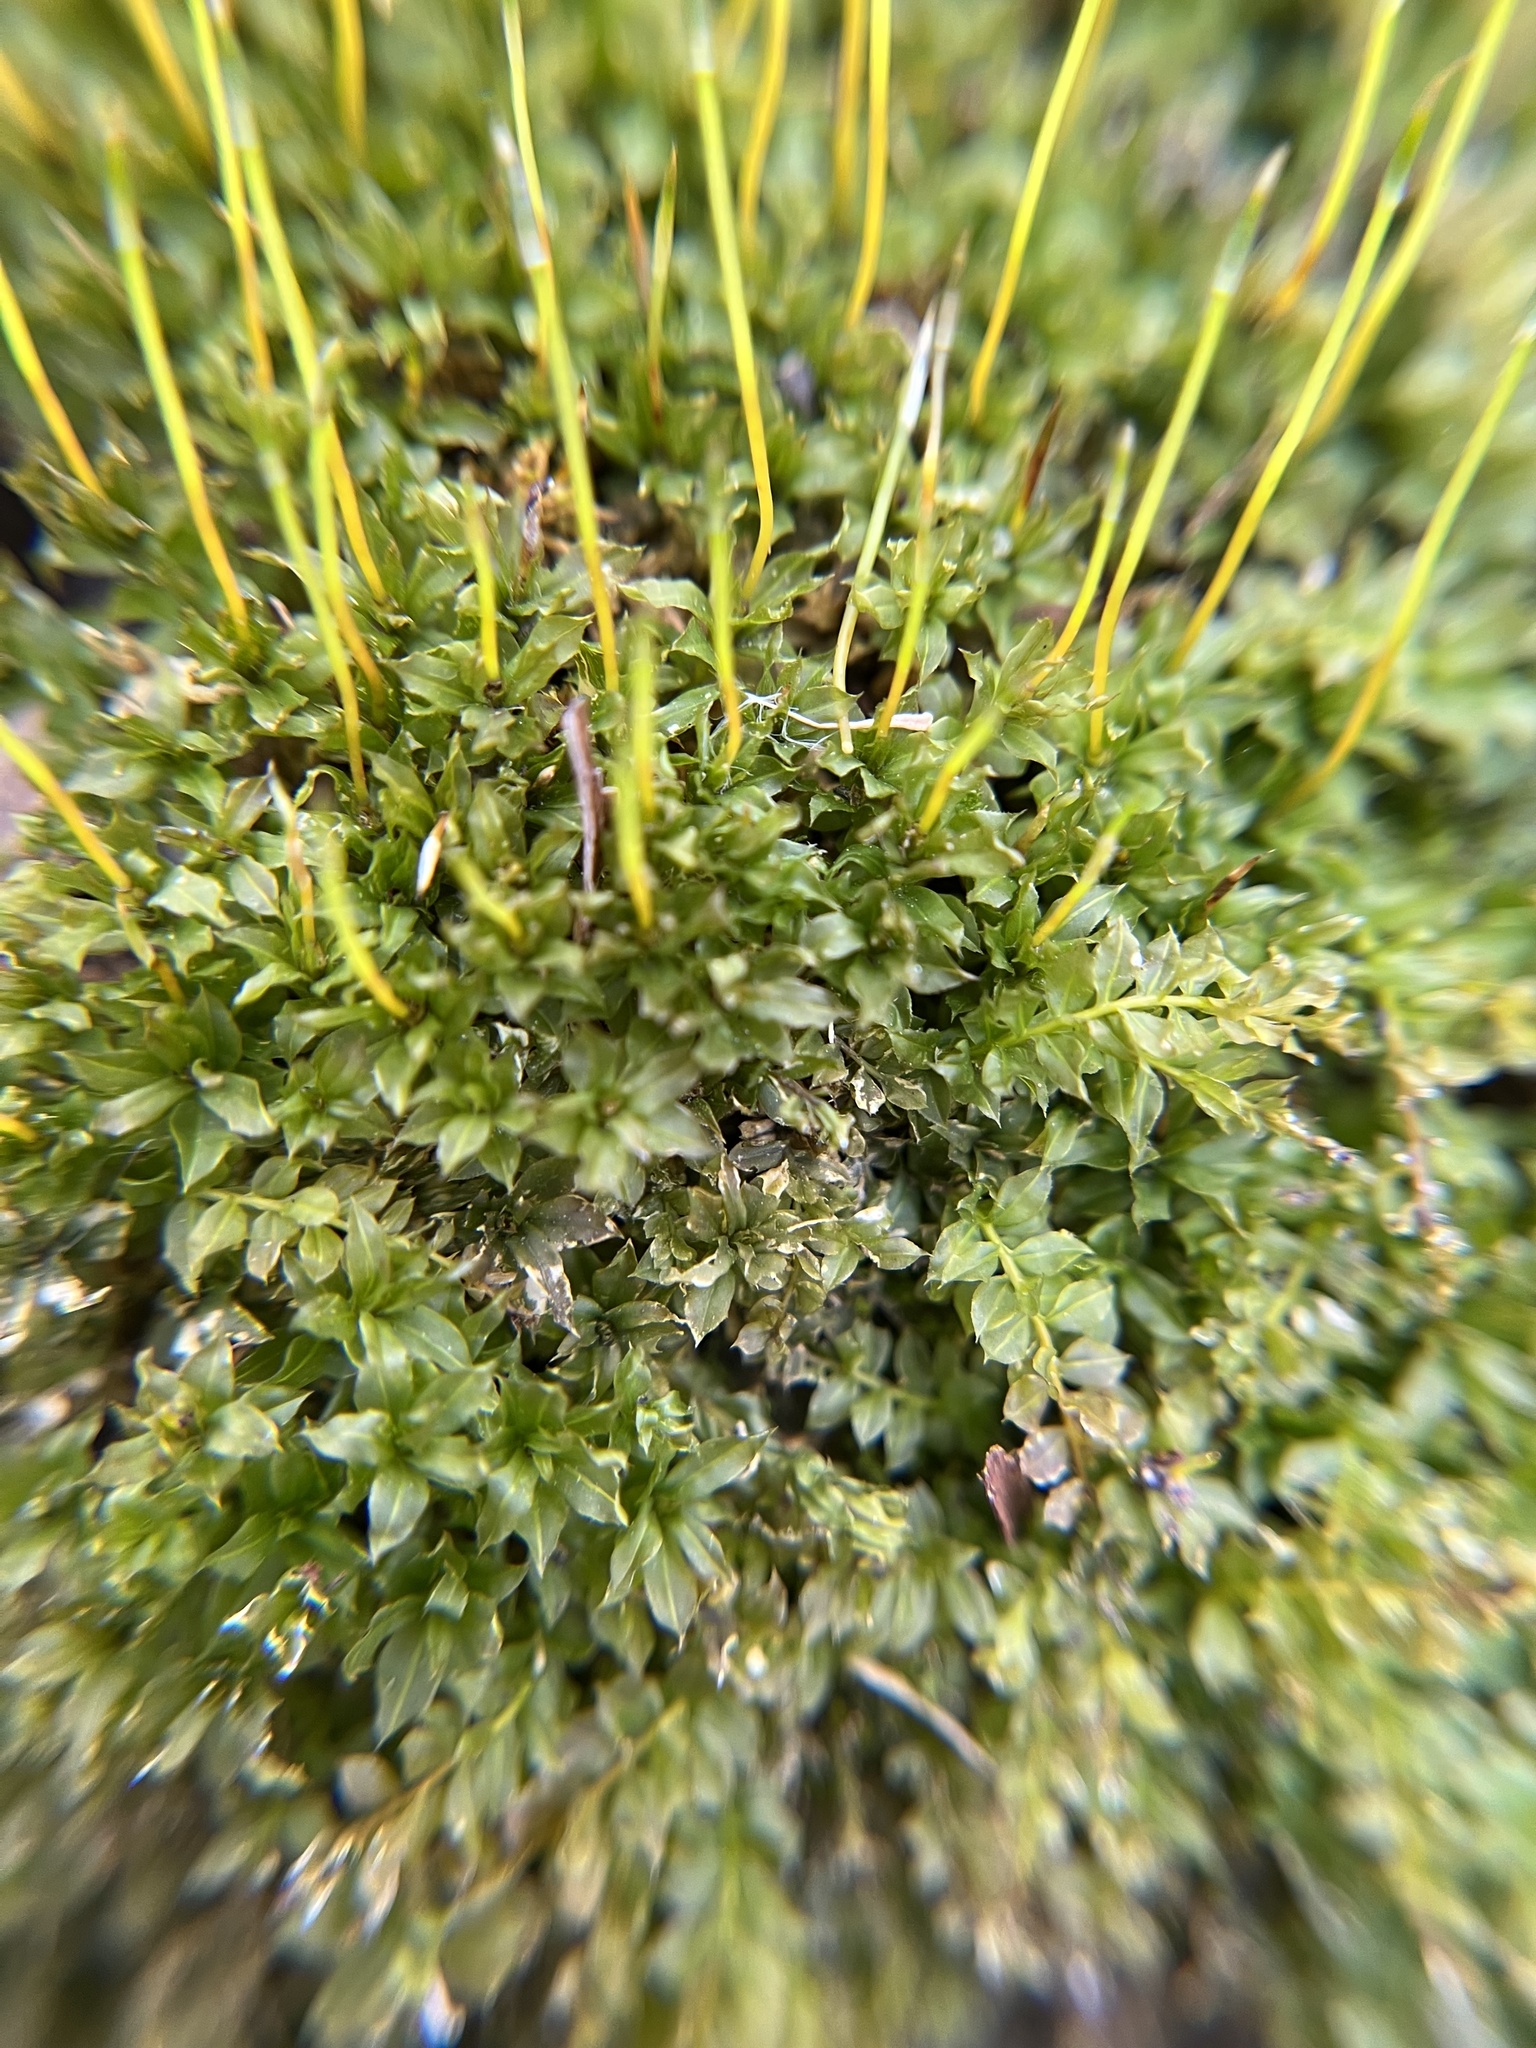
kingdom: Plantae
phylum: Bryophyta
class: Bryopsida
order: Bryales
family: Mniaceae
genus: Plagiomnium
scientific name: Plagiomnium cuspidatum
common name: Woodsy leafy moss
